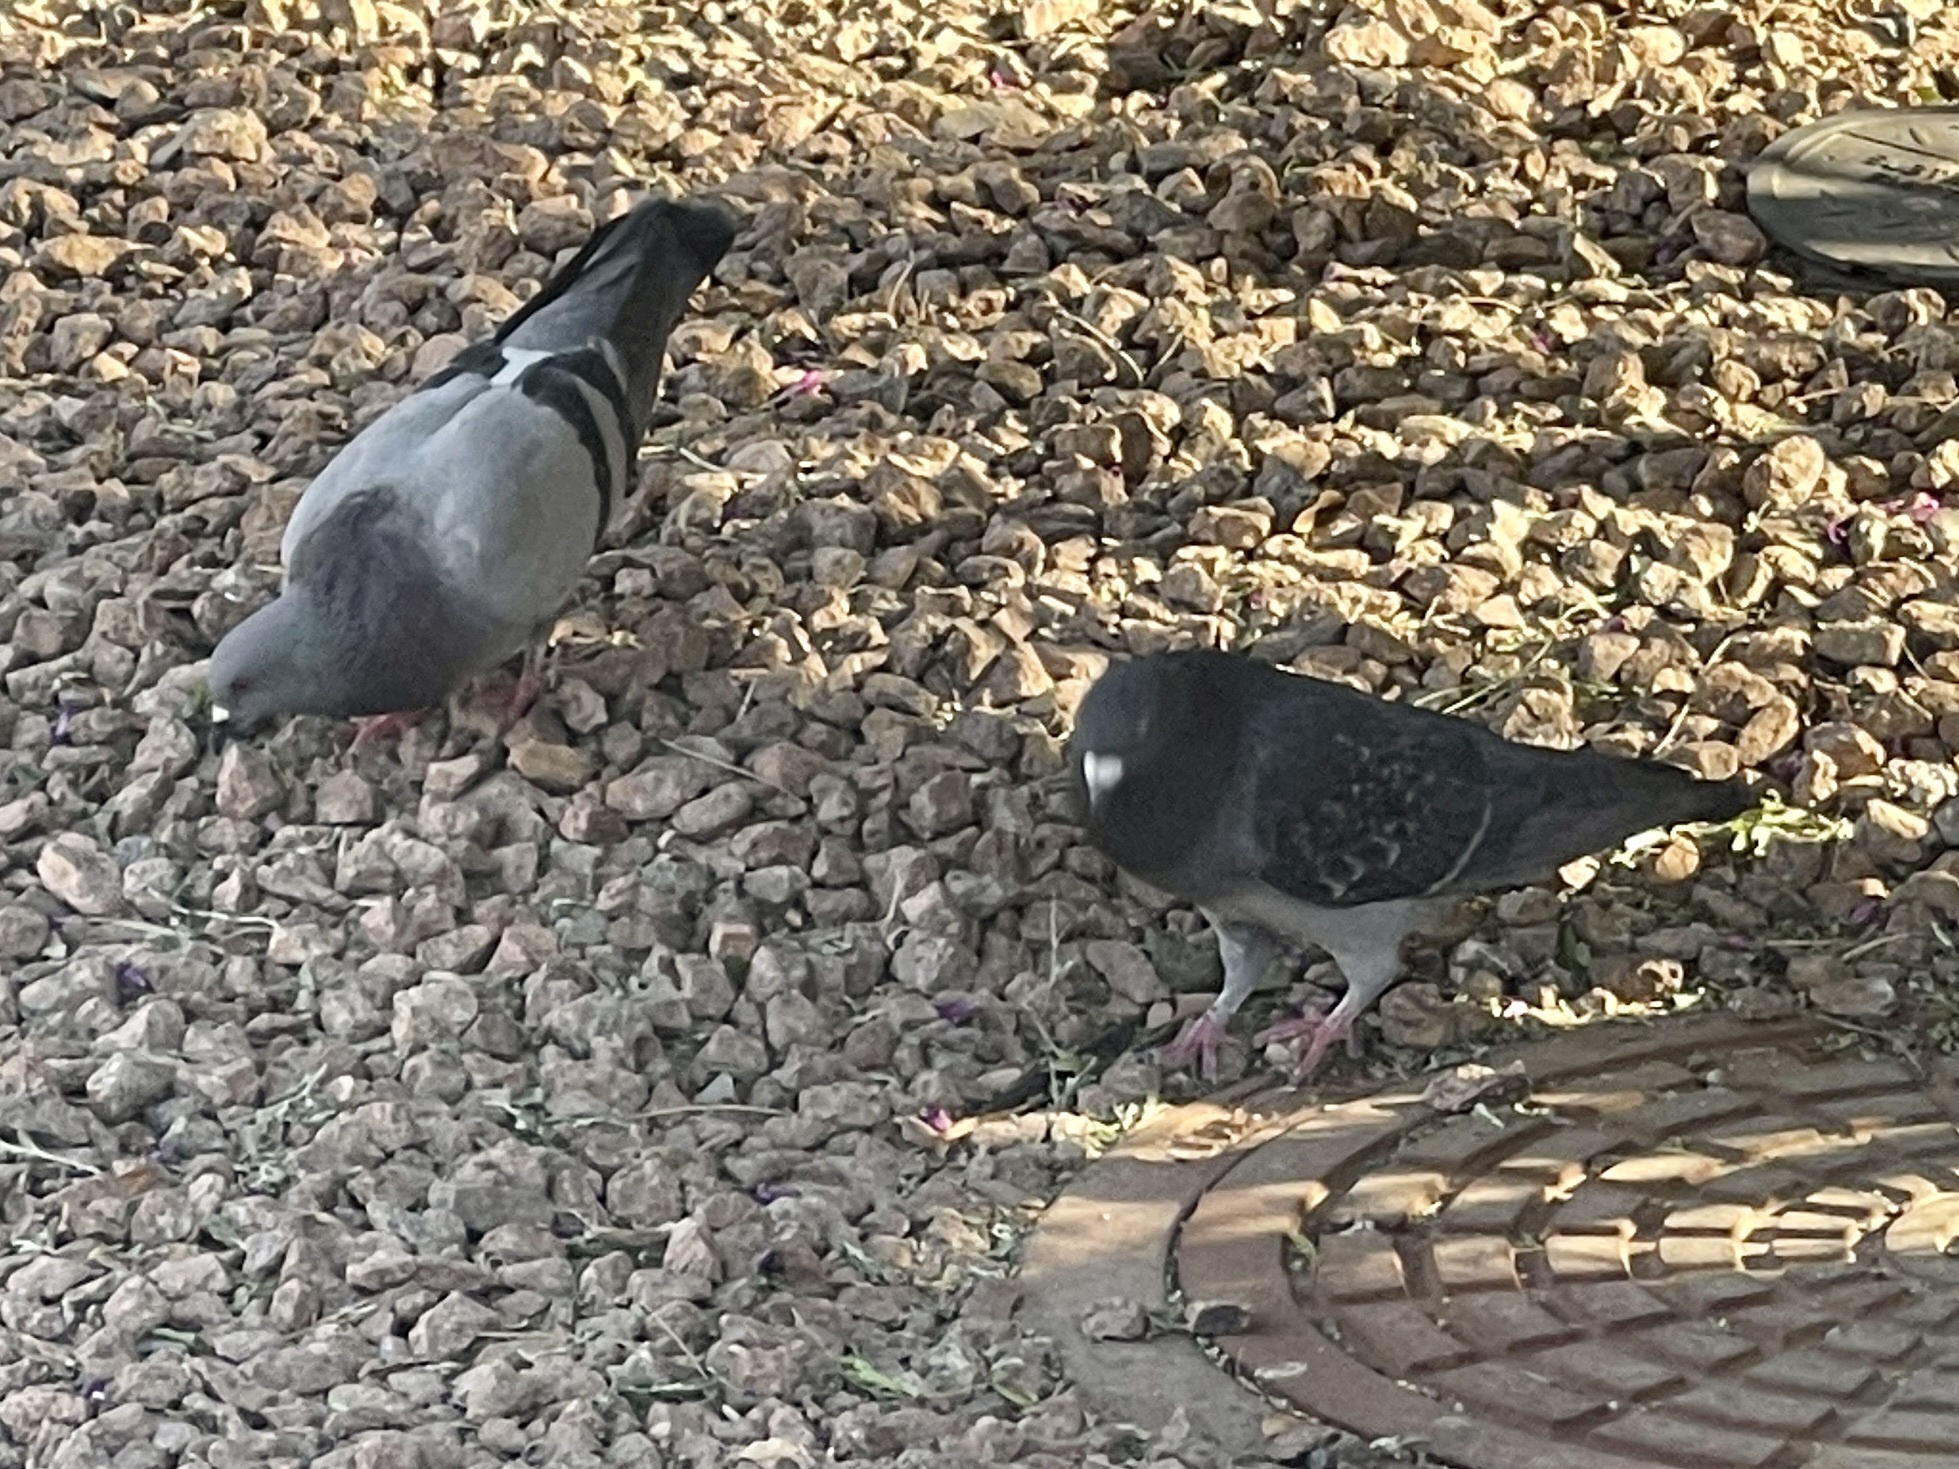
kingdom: Animalia
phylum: Chordata
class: Aves
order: Columbiformes
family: Columbidae
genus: Columba
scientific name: Columba livia
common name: Rock pigeon
